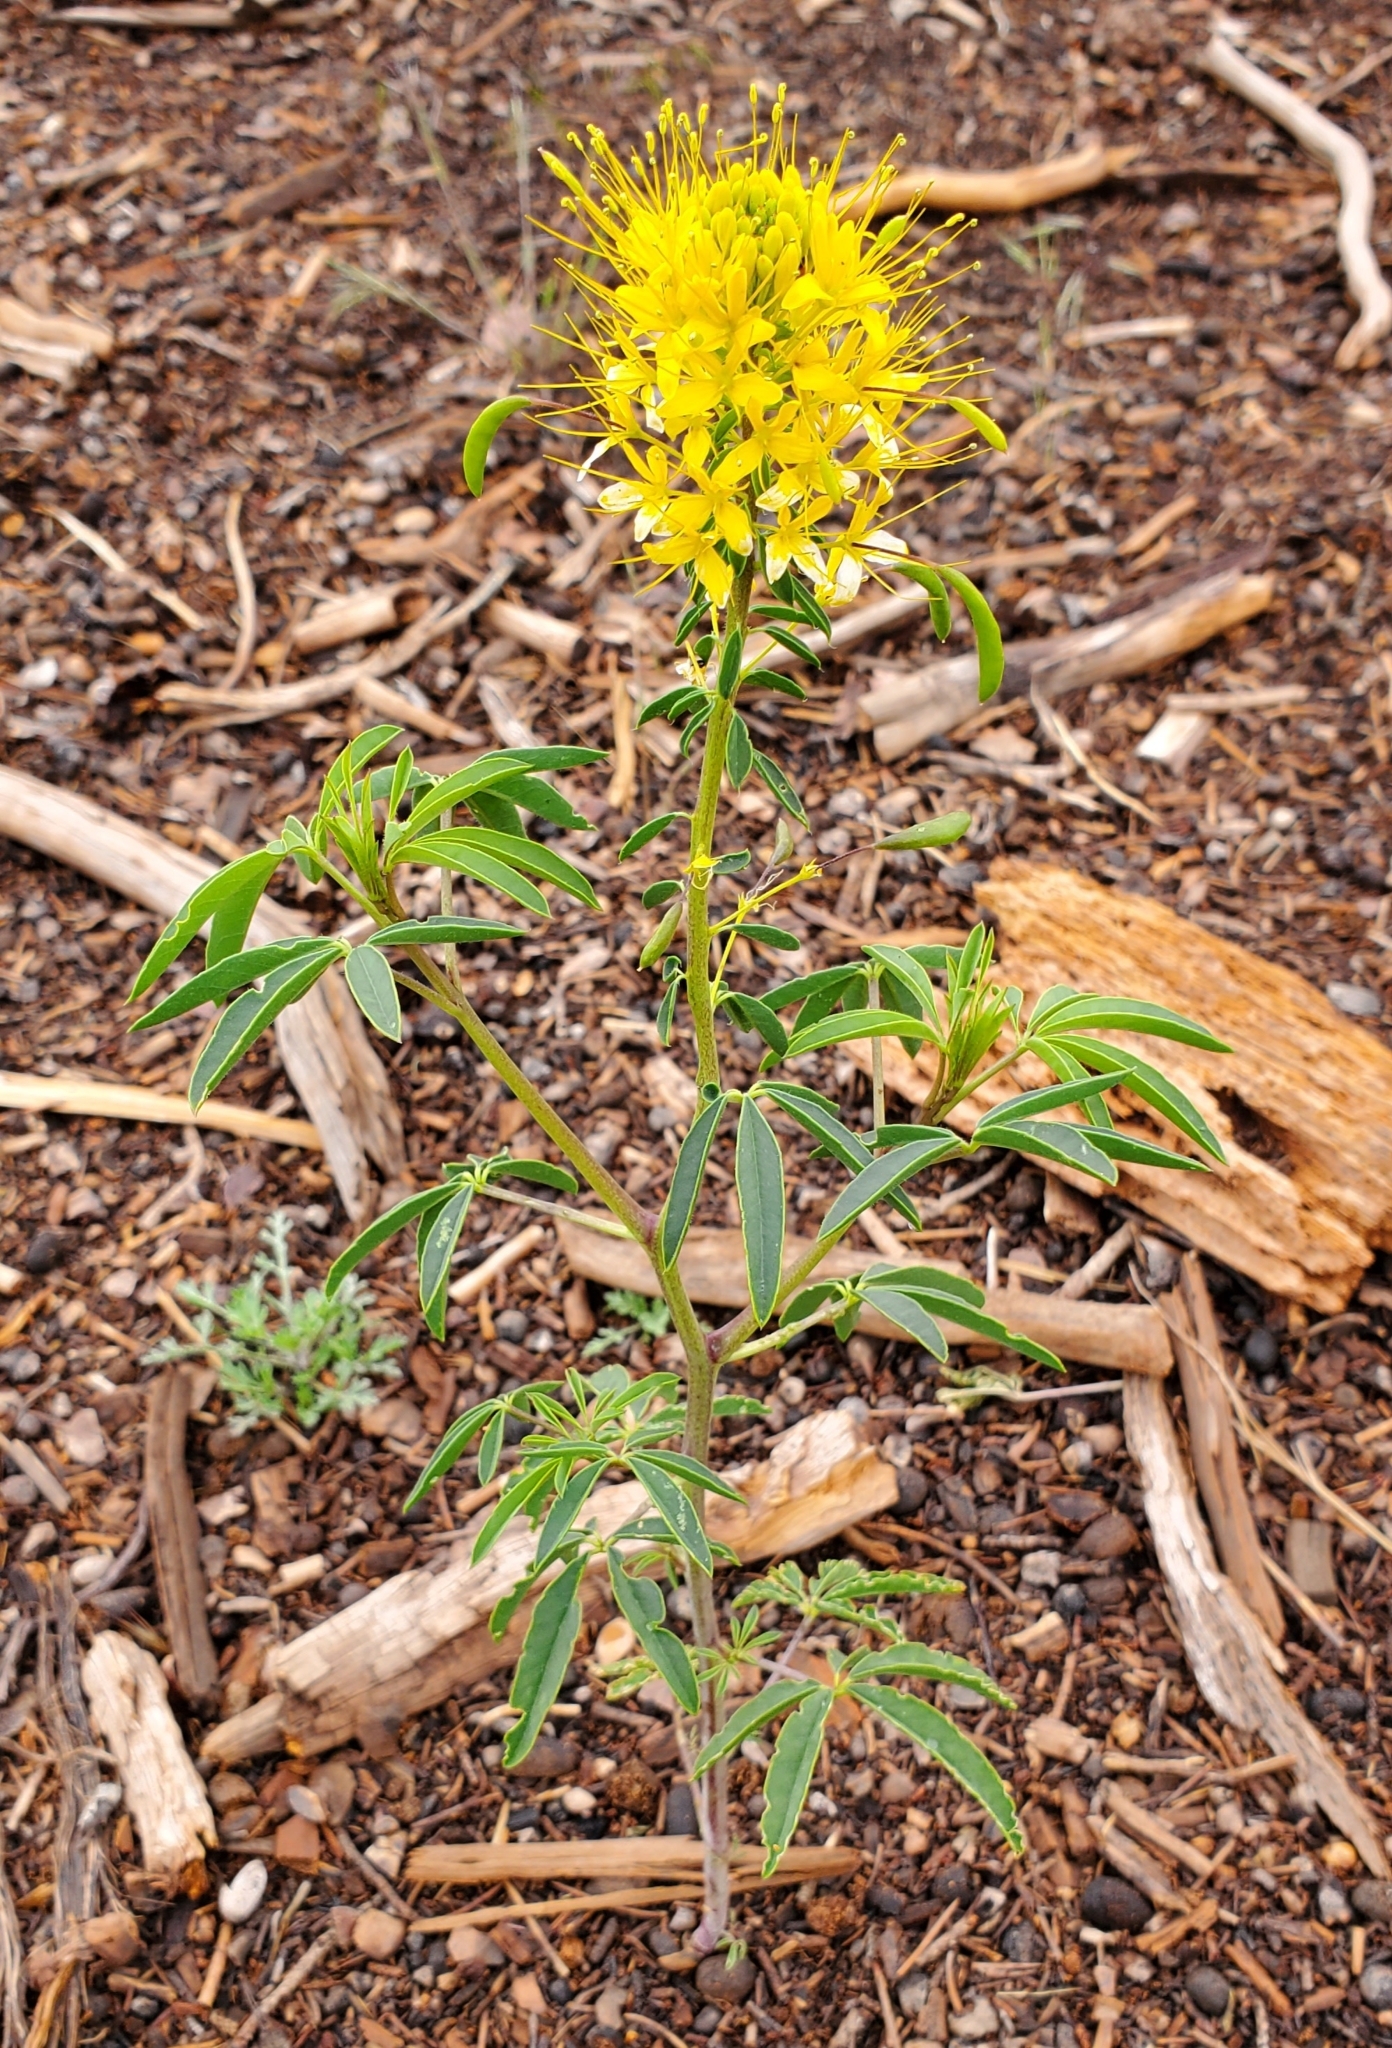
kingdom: Plantae
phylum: Tracheophyta
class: Magnoliopsida
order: Brassicales
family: Cleomaceae
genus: Cleomella
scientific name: Cleomella lutea
